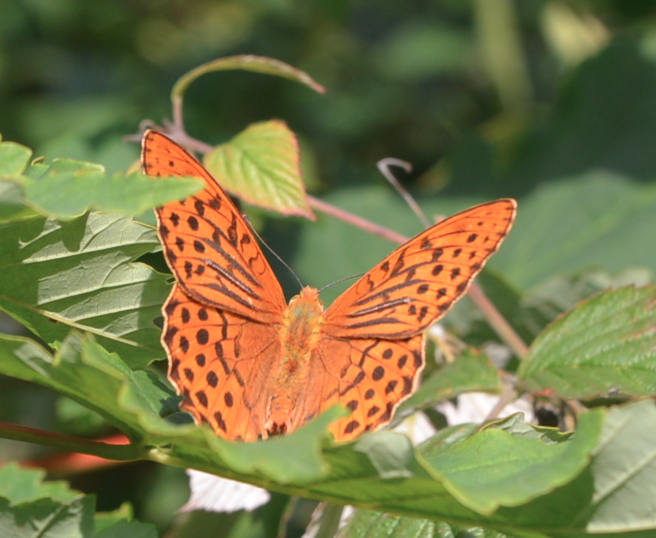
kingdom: Animalia
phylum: Arthropoda
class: Insecta
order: Lepidoptera
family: Nymphalidae
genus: Argynnis
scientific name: Argynnis paphia
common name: Silver-washed fritillary
